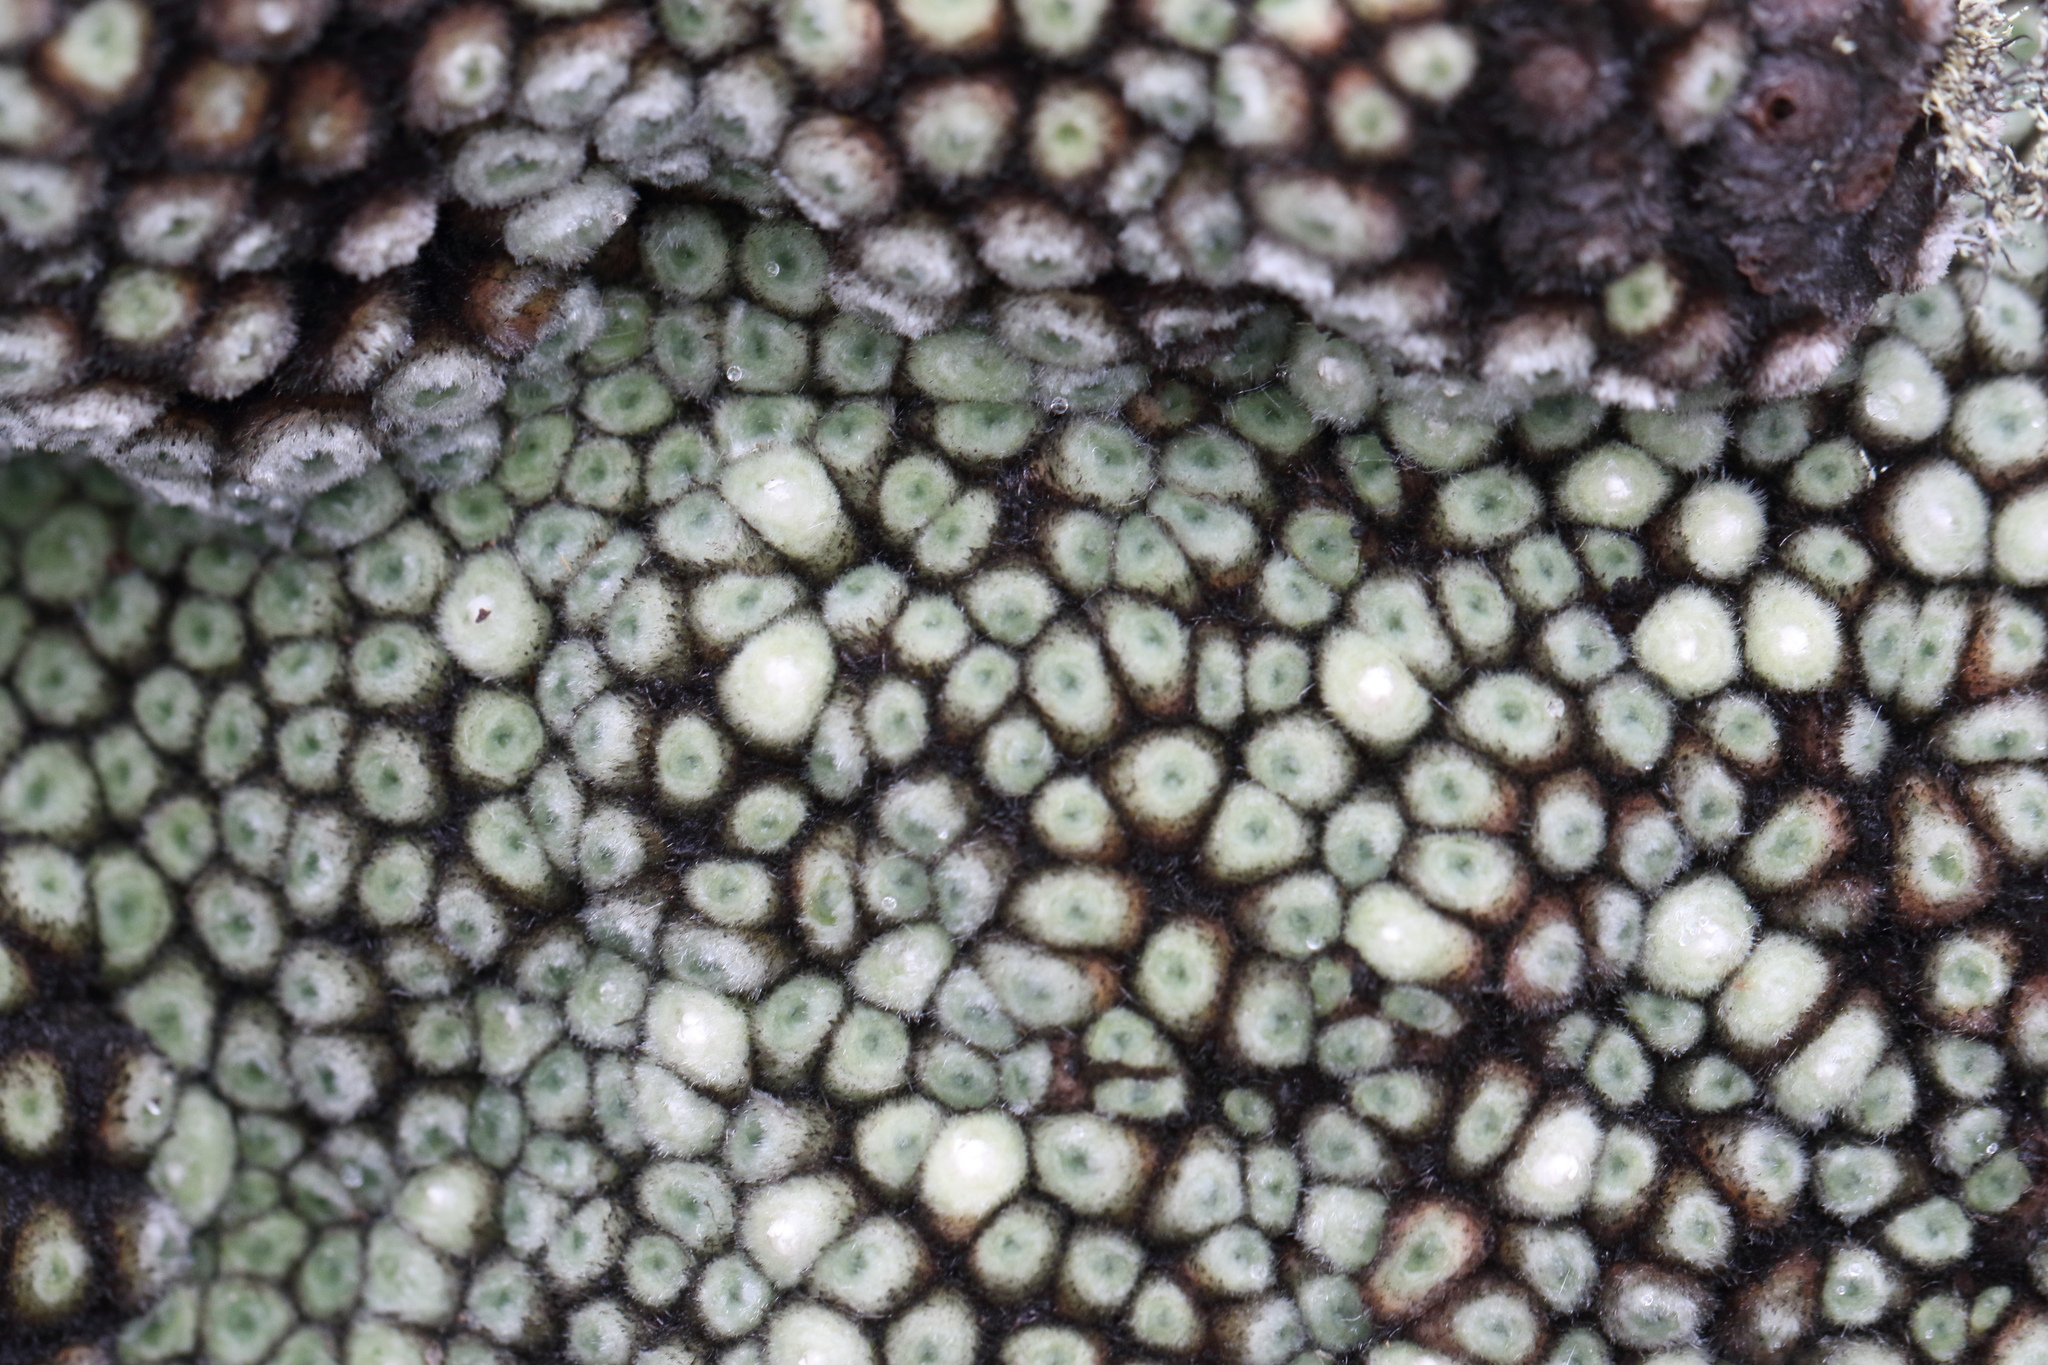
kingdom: Plantae
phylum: Tracheophyta
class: Magnoliopsida
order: Asterales
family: Asteraceae
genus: Raoulia
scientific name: Raoulia rubra
